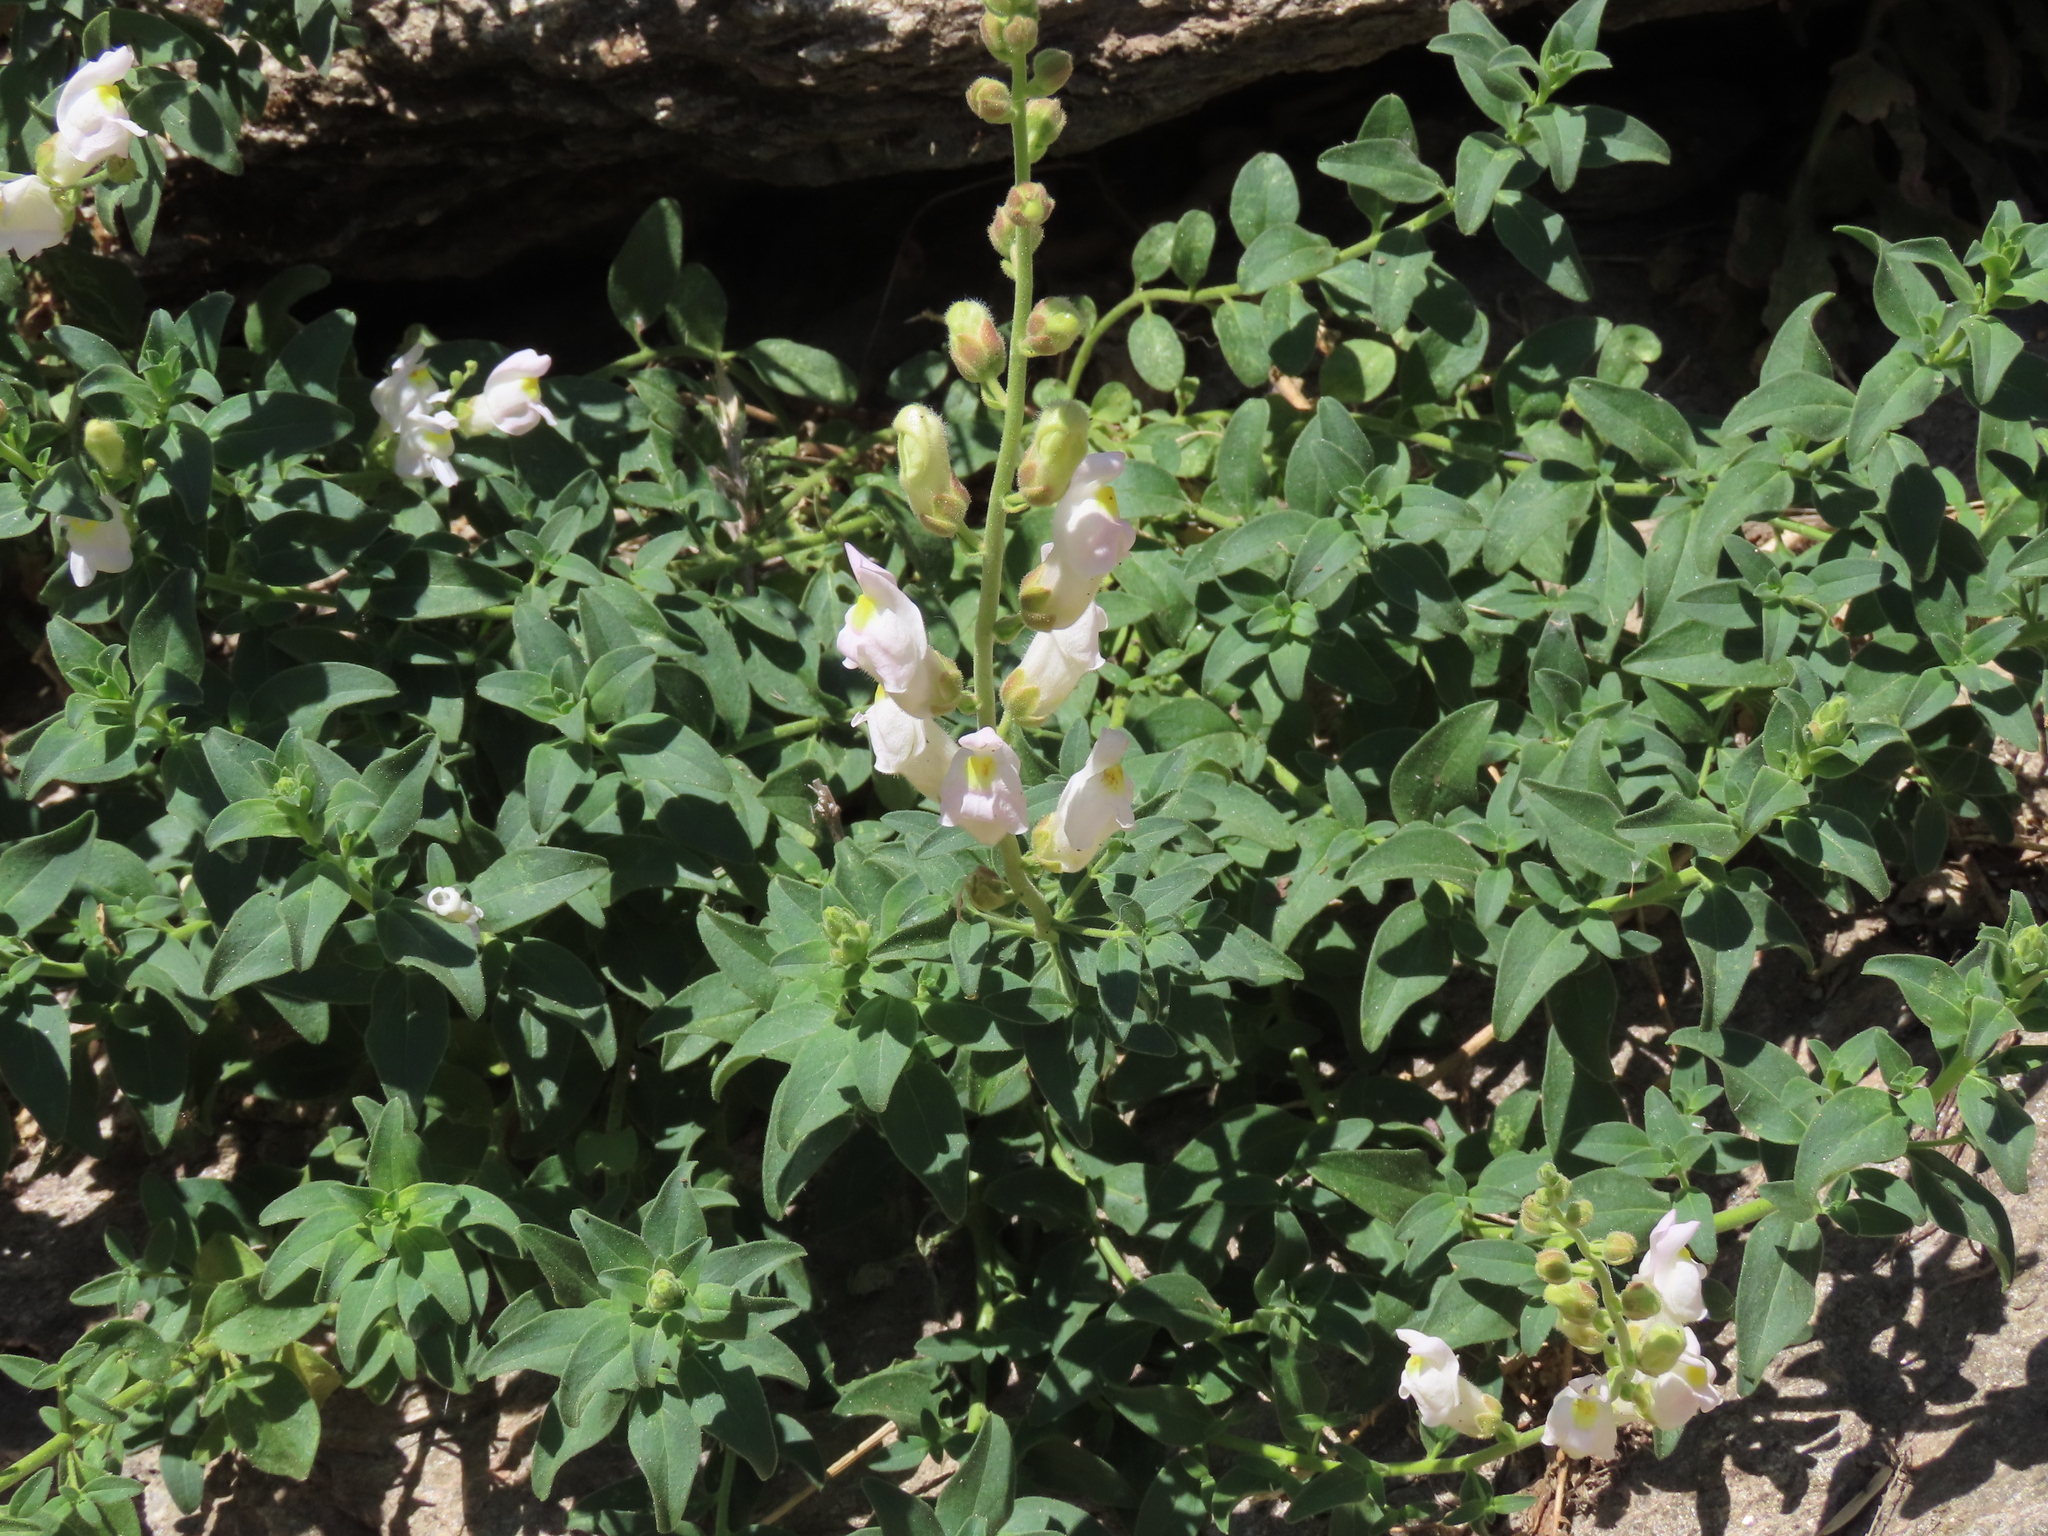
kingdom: Plantae
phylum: Tracheophyta
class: Magnoliopsida
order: Lamiales
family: Plantaginaceae
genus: Antirrhinum
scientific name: Antirrhinum graniticum
